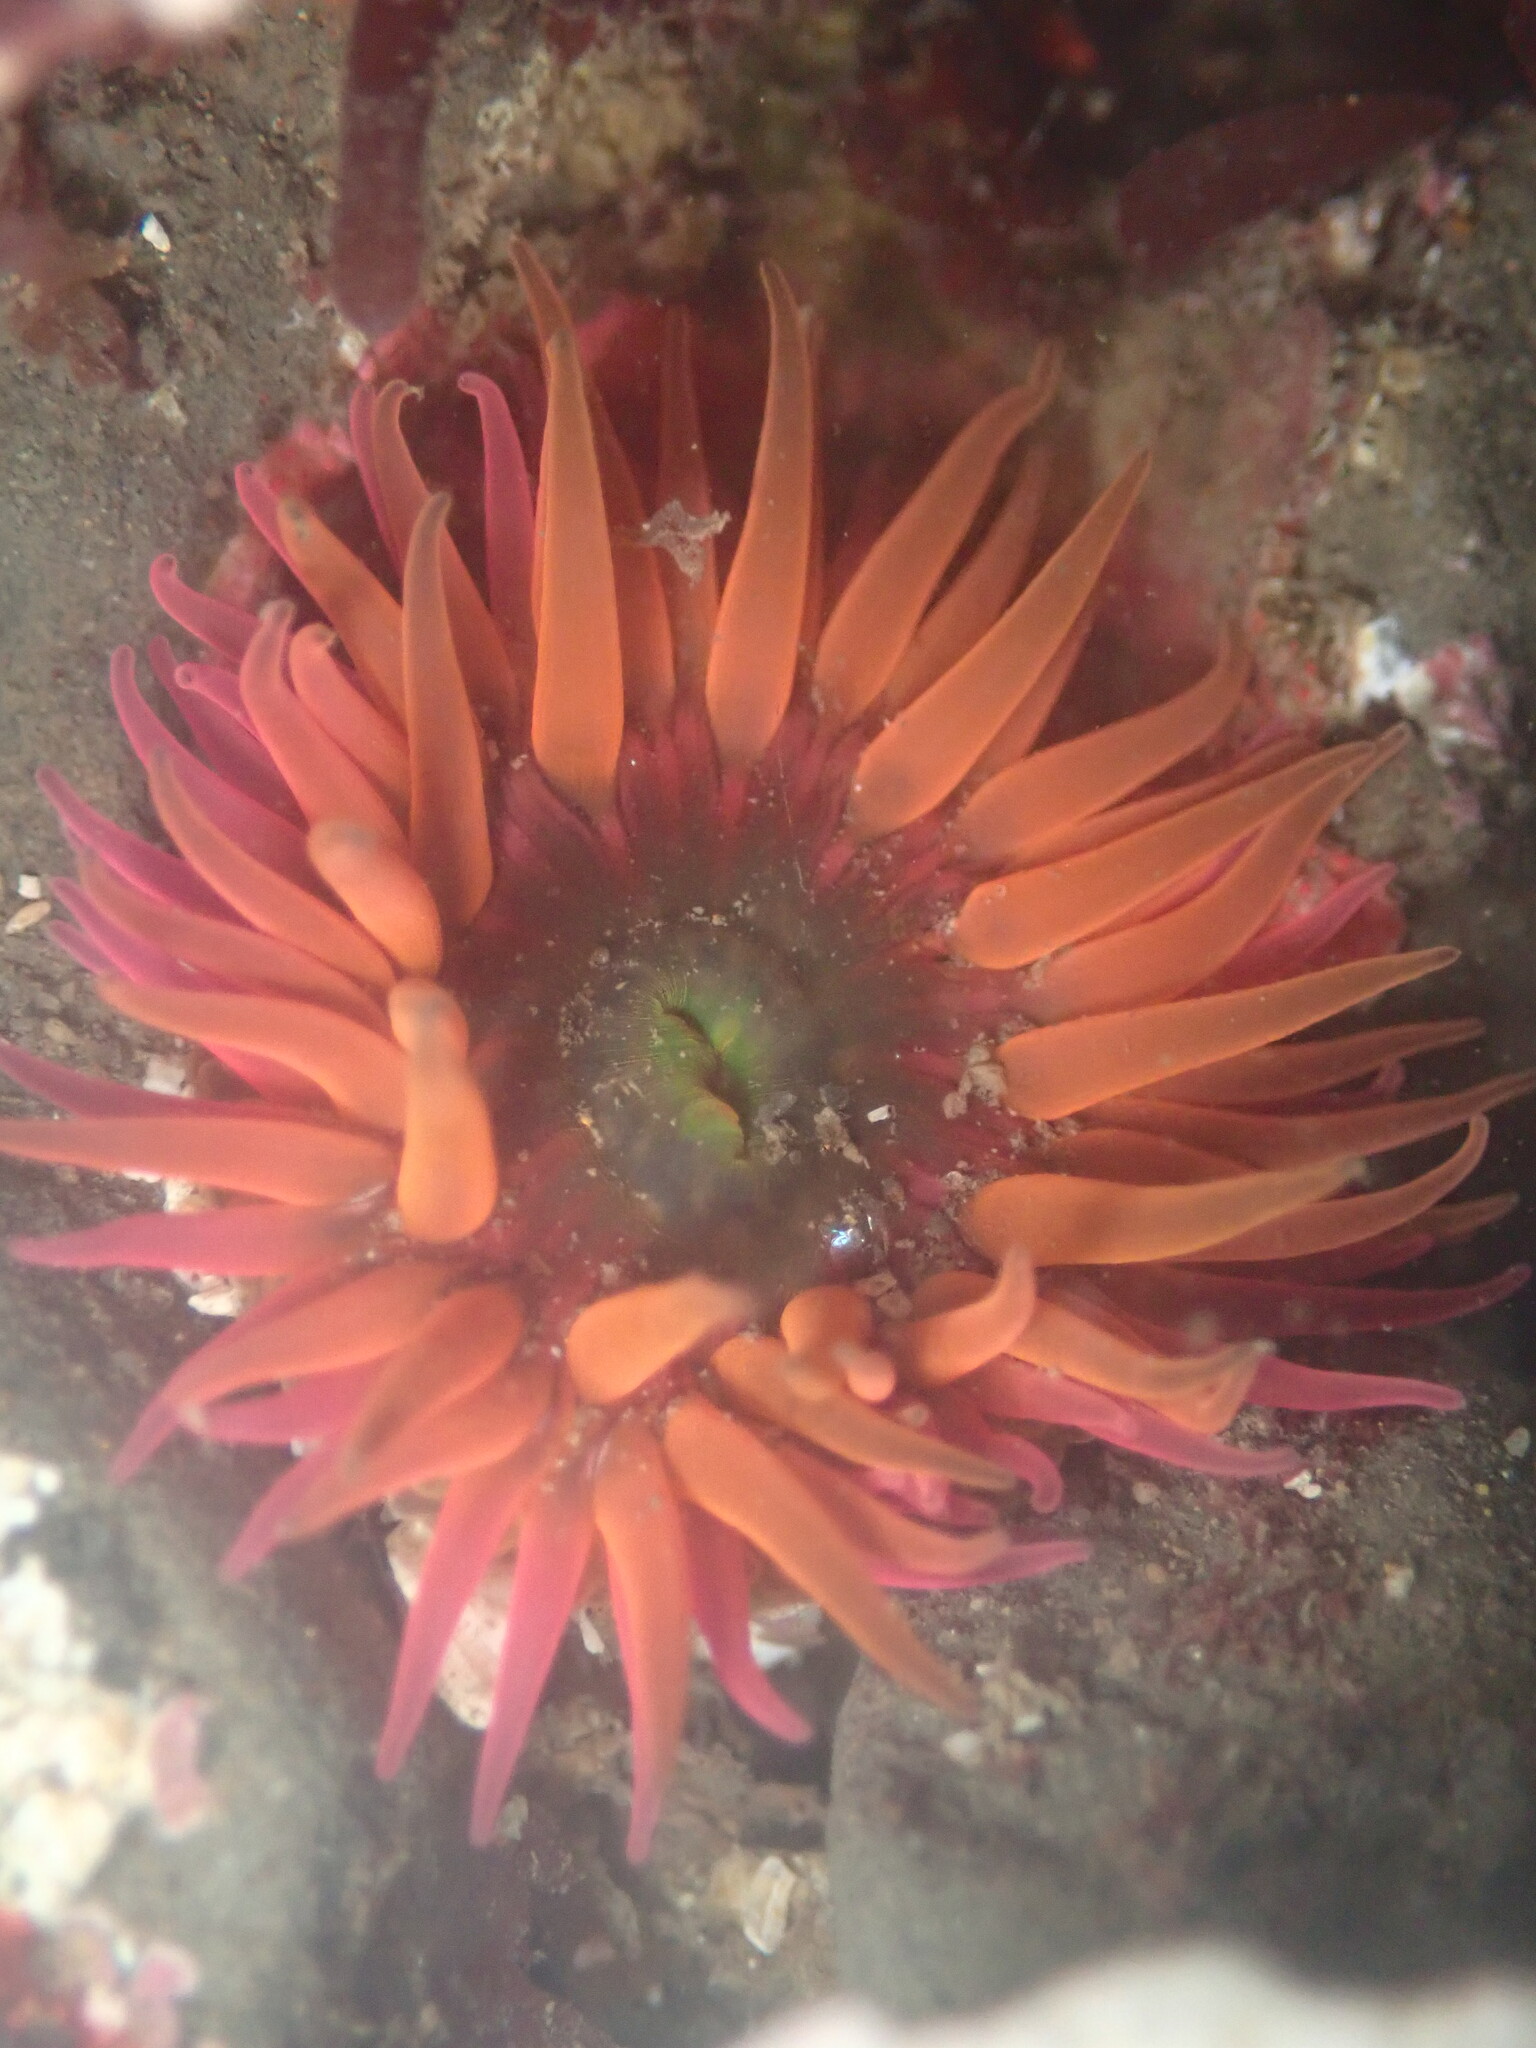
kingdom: Animalia
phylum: Cnidaria
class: Anthozoa
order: Actiniaria
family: Actiniidae
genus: Anthopleura
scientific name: Anthopleura artemisia
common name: Buried sea anemone
